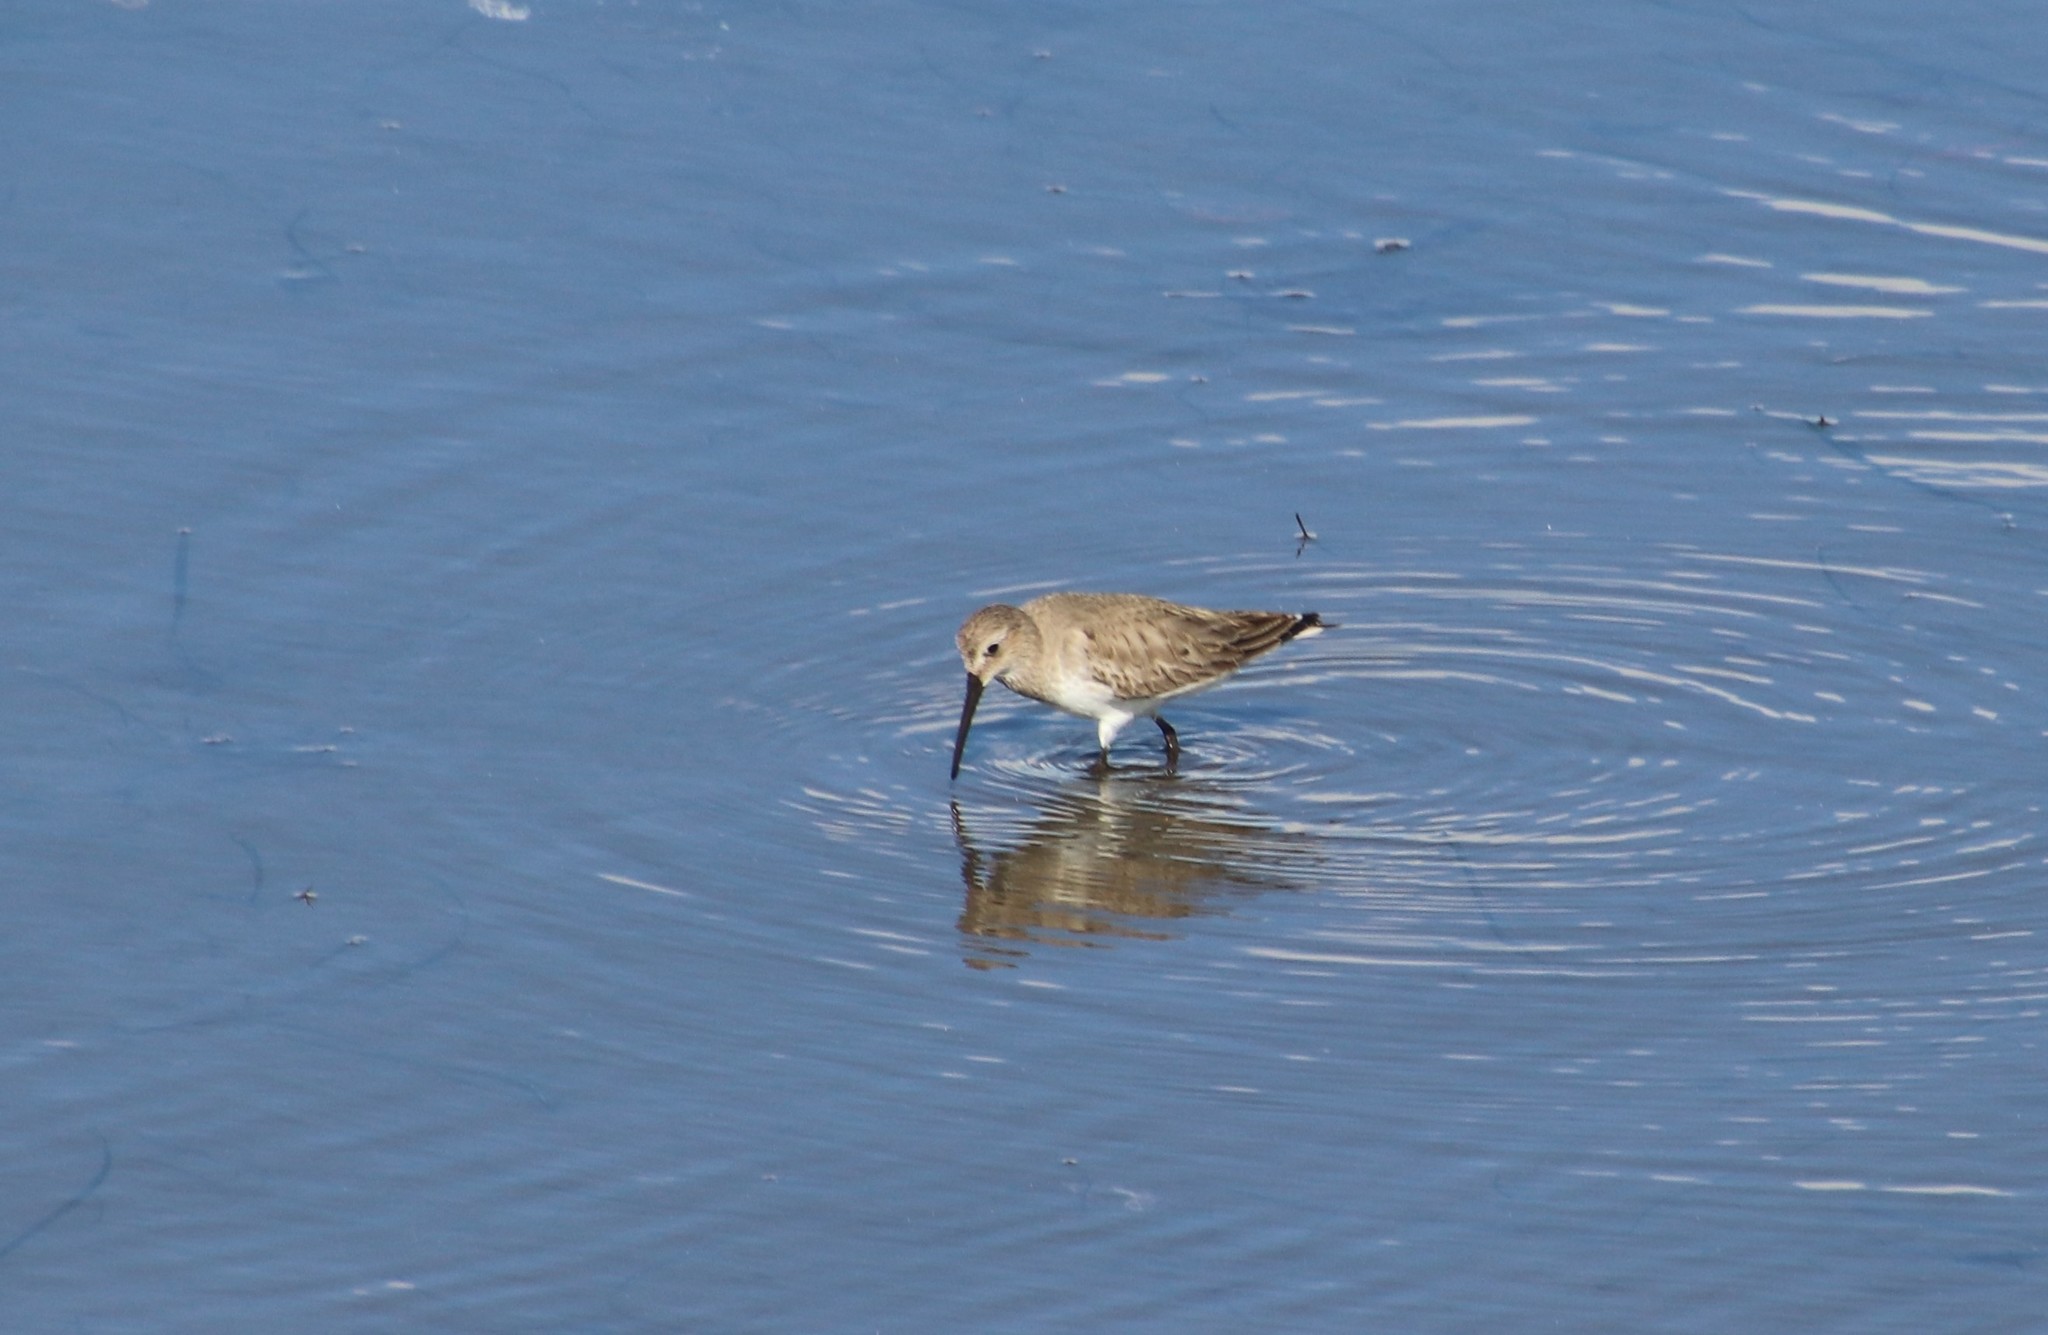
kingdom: Animalia
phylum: Chordata
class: Aves
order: Charadriiformes
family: Scolopacidae
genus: Calidris
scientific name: Calidris alpina
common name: Dunlin
